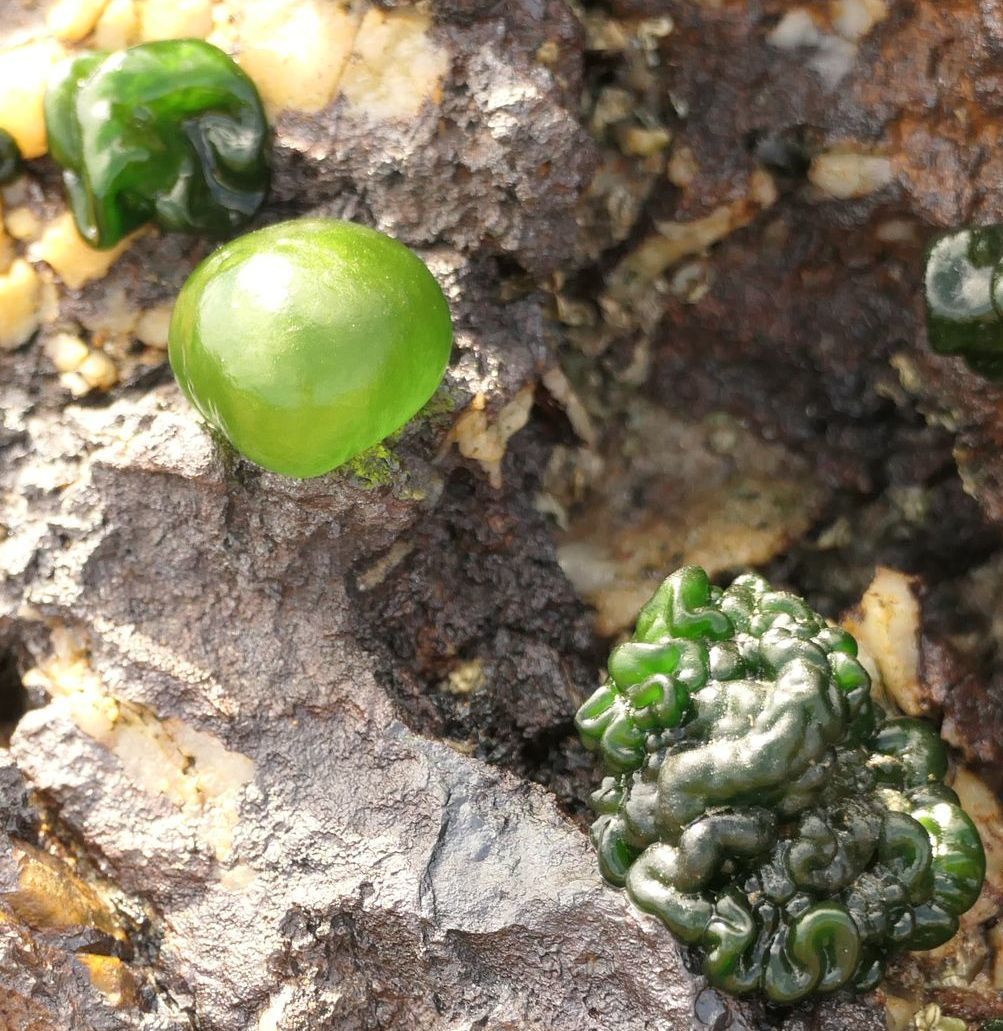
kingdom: Bacteria
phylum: Cyanobacteria
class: Cyanobacteriia
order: Cyanobacteriales
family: Rivulariaceae
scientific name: Rivulariaceae
